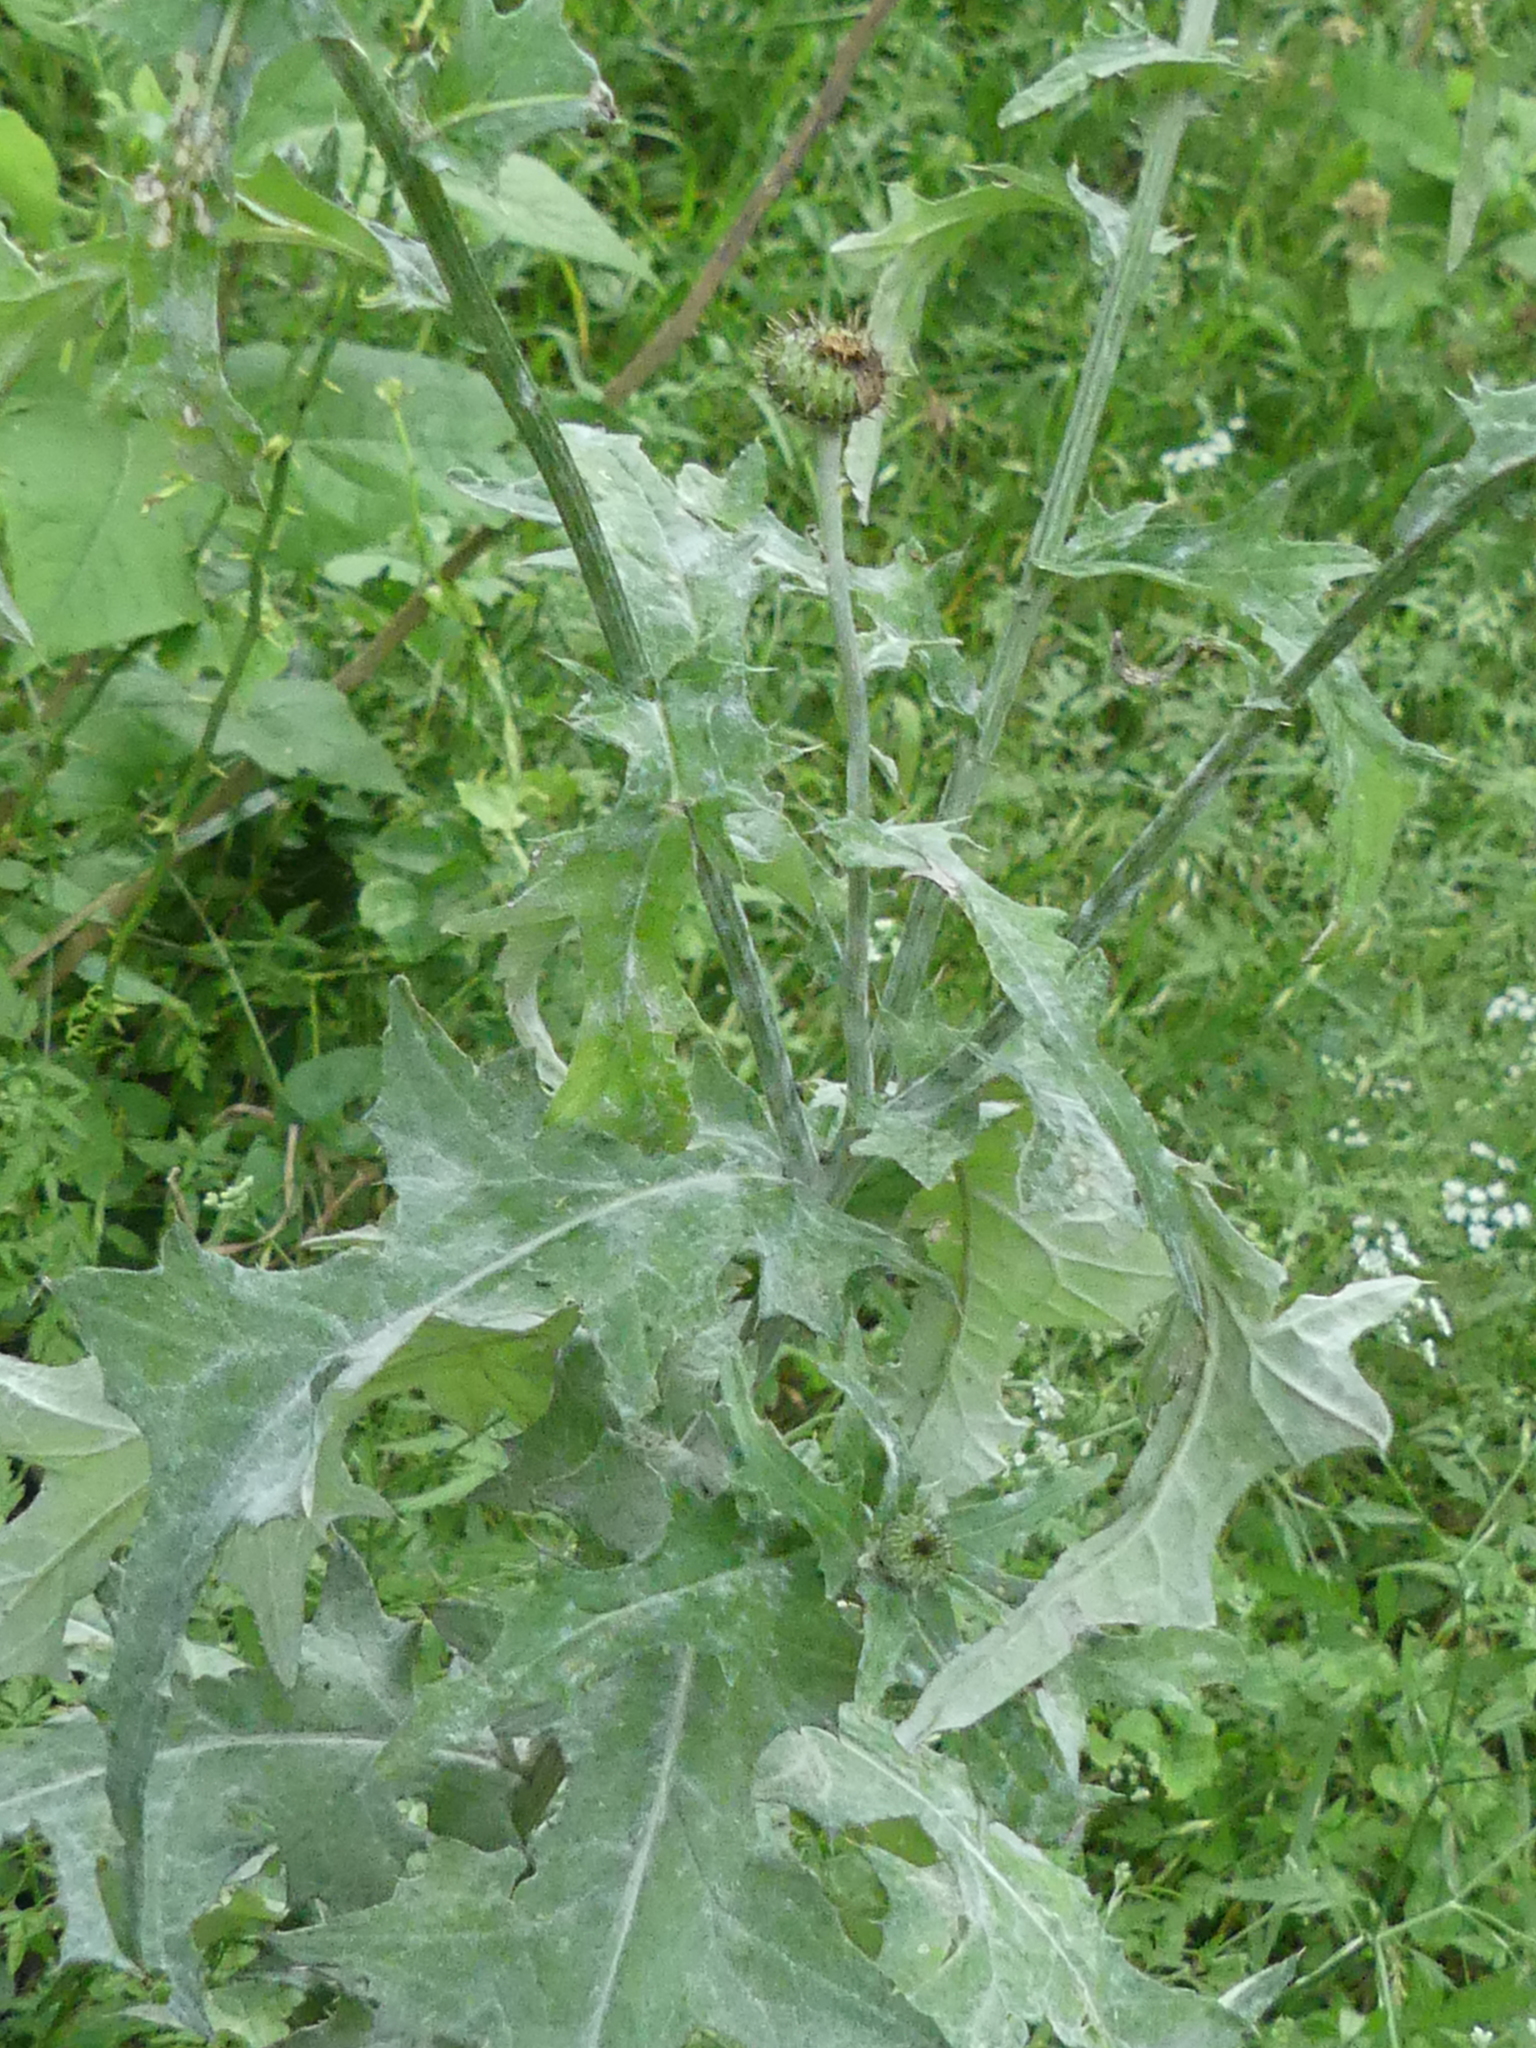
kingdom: Plantae
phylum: Tracheophyta
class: Magnoliopsida
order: Asterales
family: Asteraceae
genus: Cirsium
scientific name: Cirsium texanum
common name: Texas purple thistle
